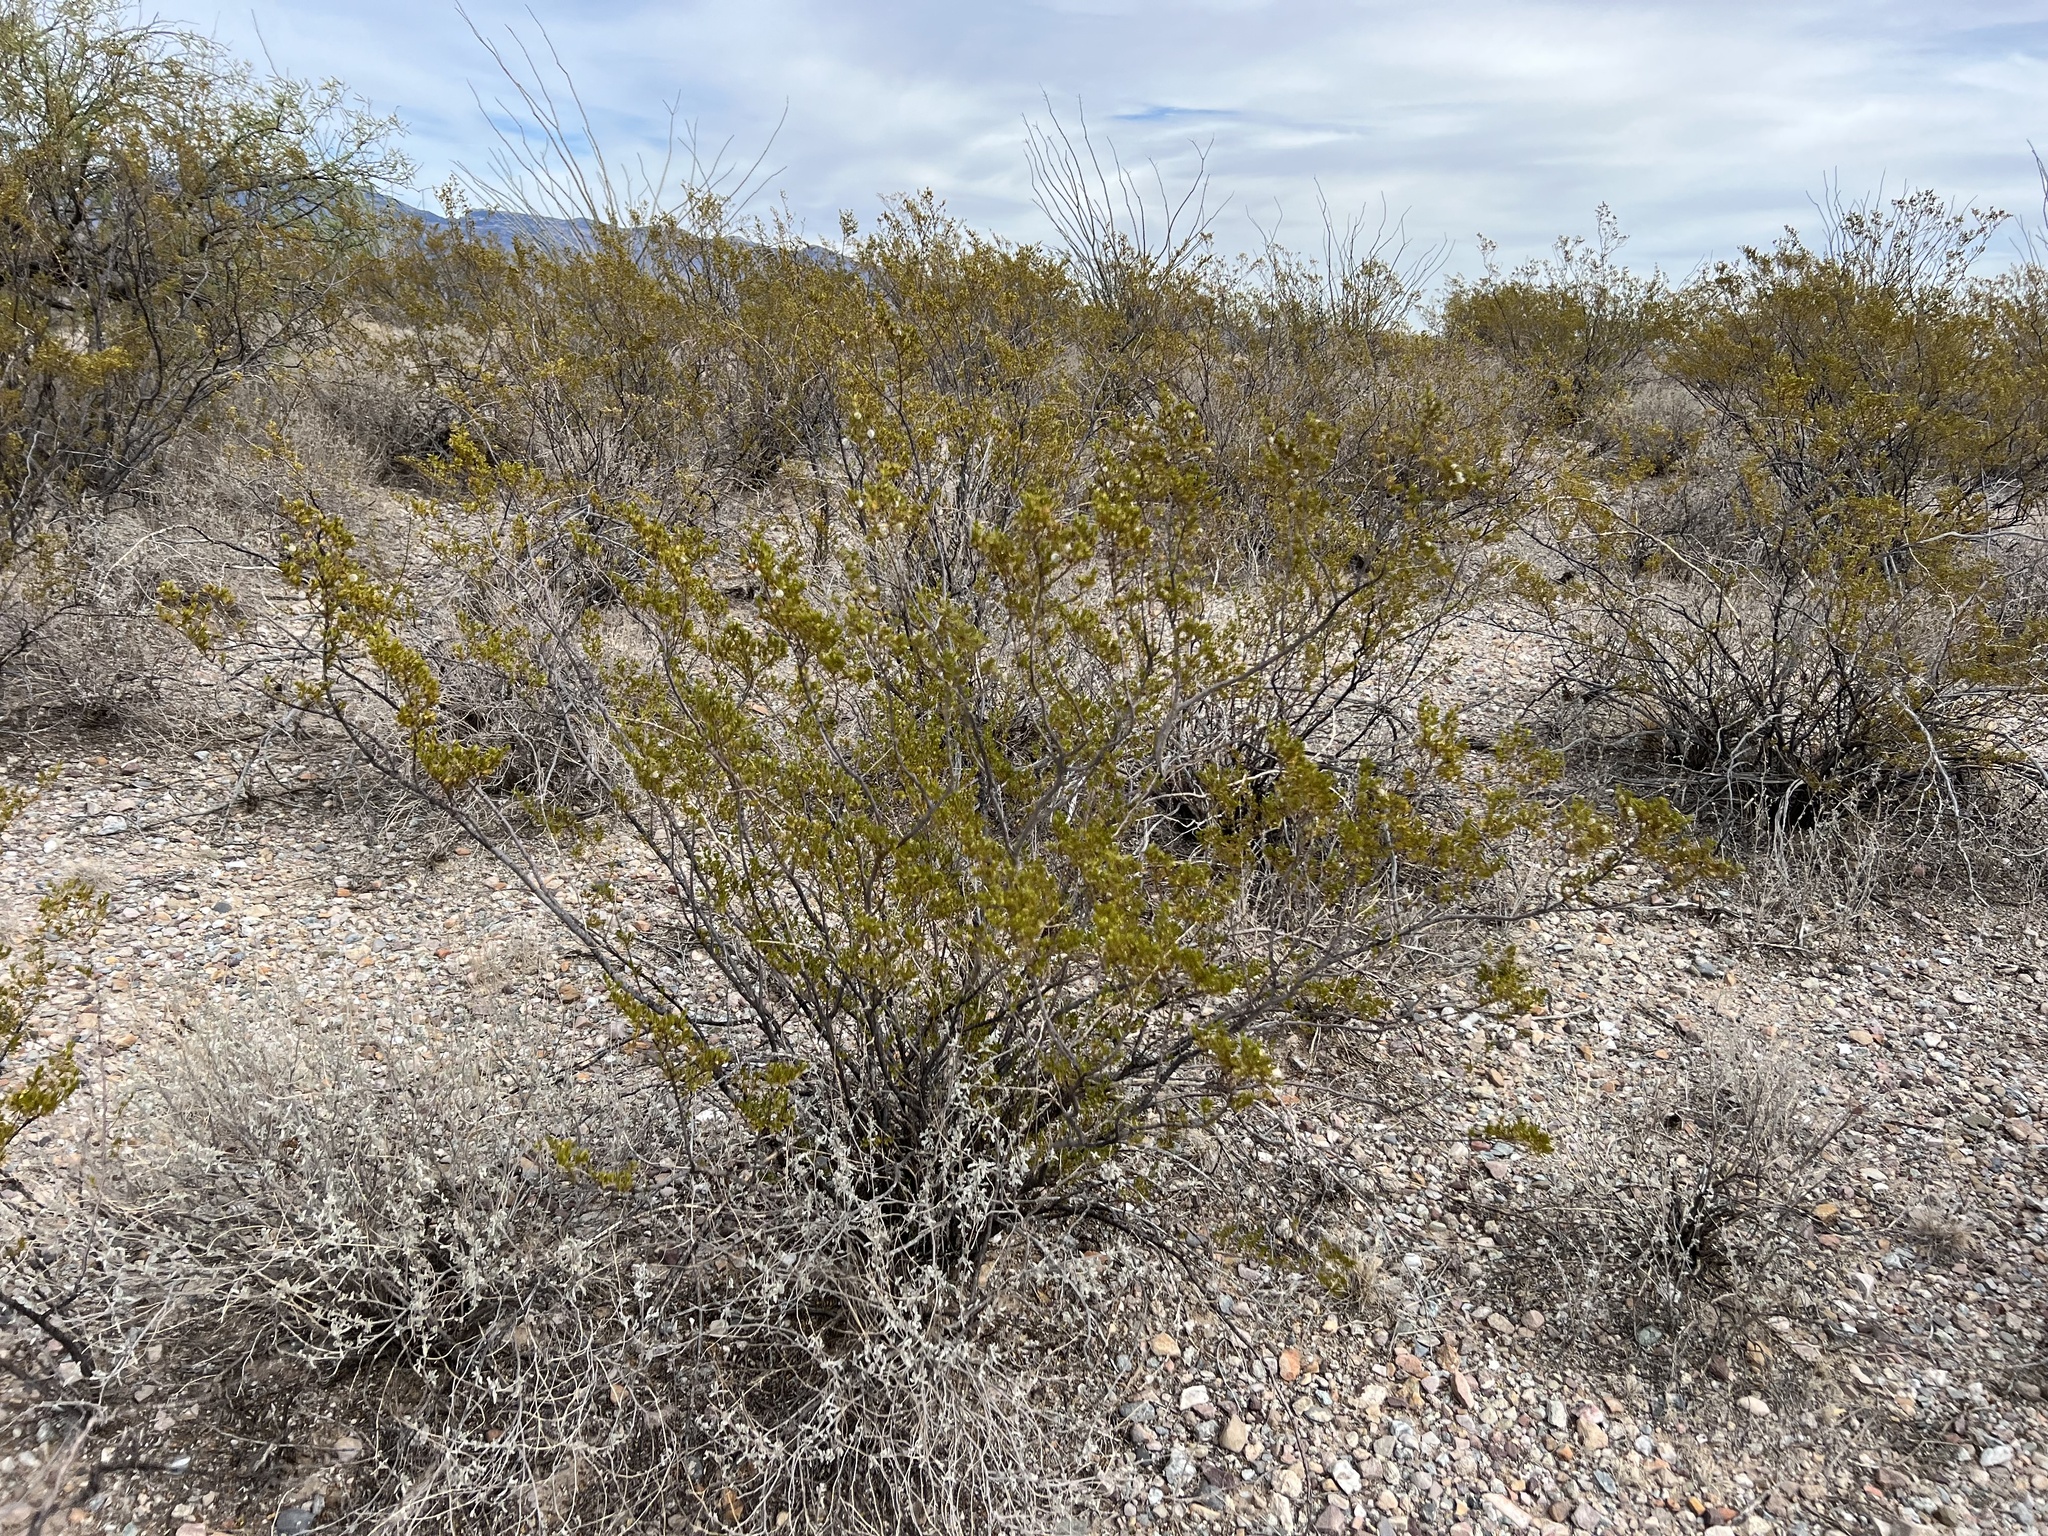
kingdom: Plantae
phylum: Tracheophyta
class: Magnoliopsida
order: Zygophyllales
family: Zygophyllaceae
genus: Larrea
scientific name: Larrea tridentata
